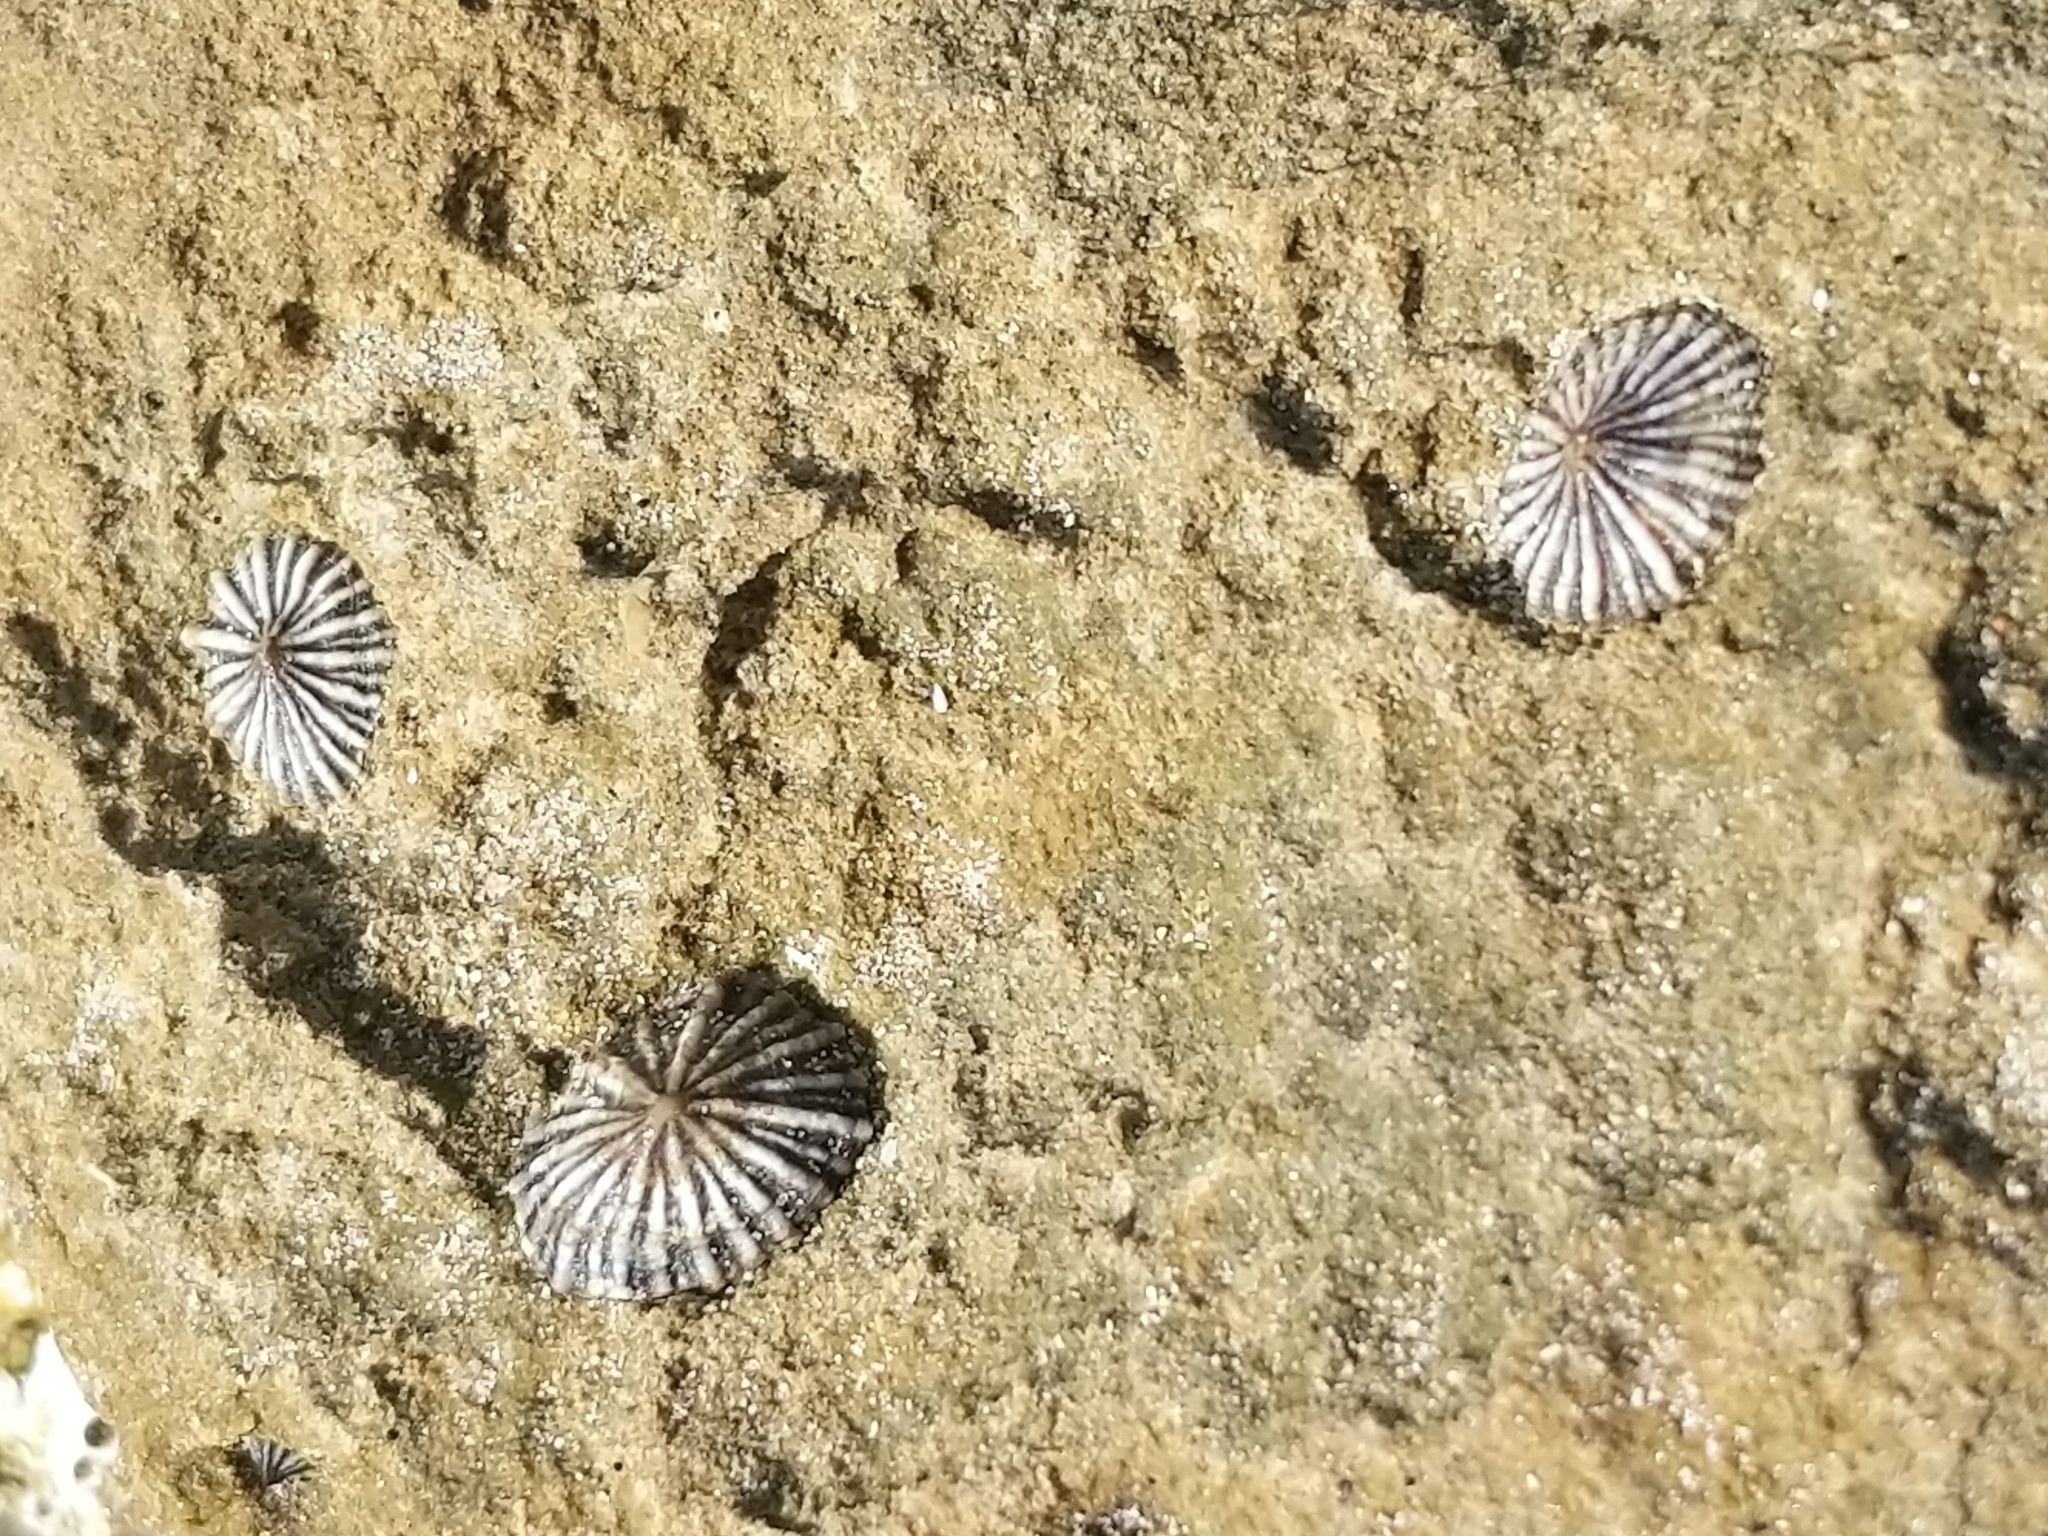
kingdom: Animalia
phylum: Mollusca
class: Gastropoda
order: Siphonariida
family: Siphonariidae
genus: Siphonaria
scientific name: Siphonaria diemenensis
